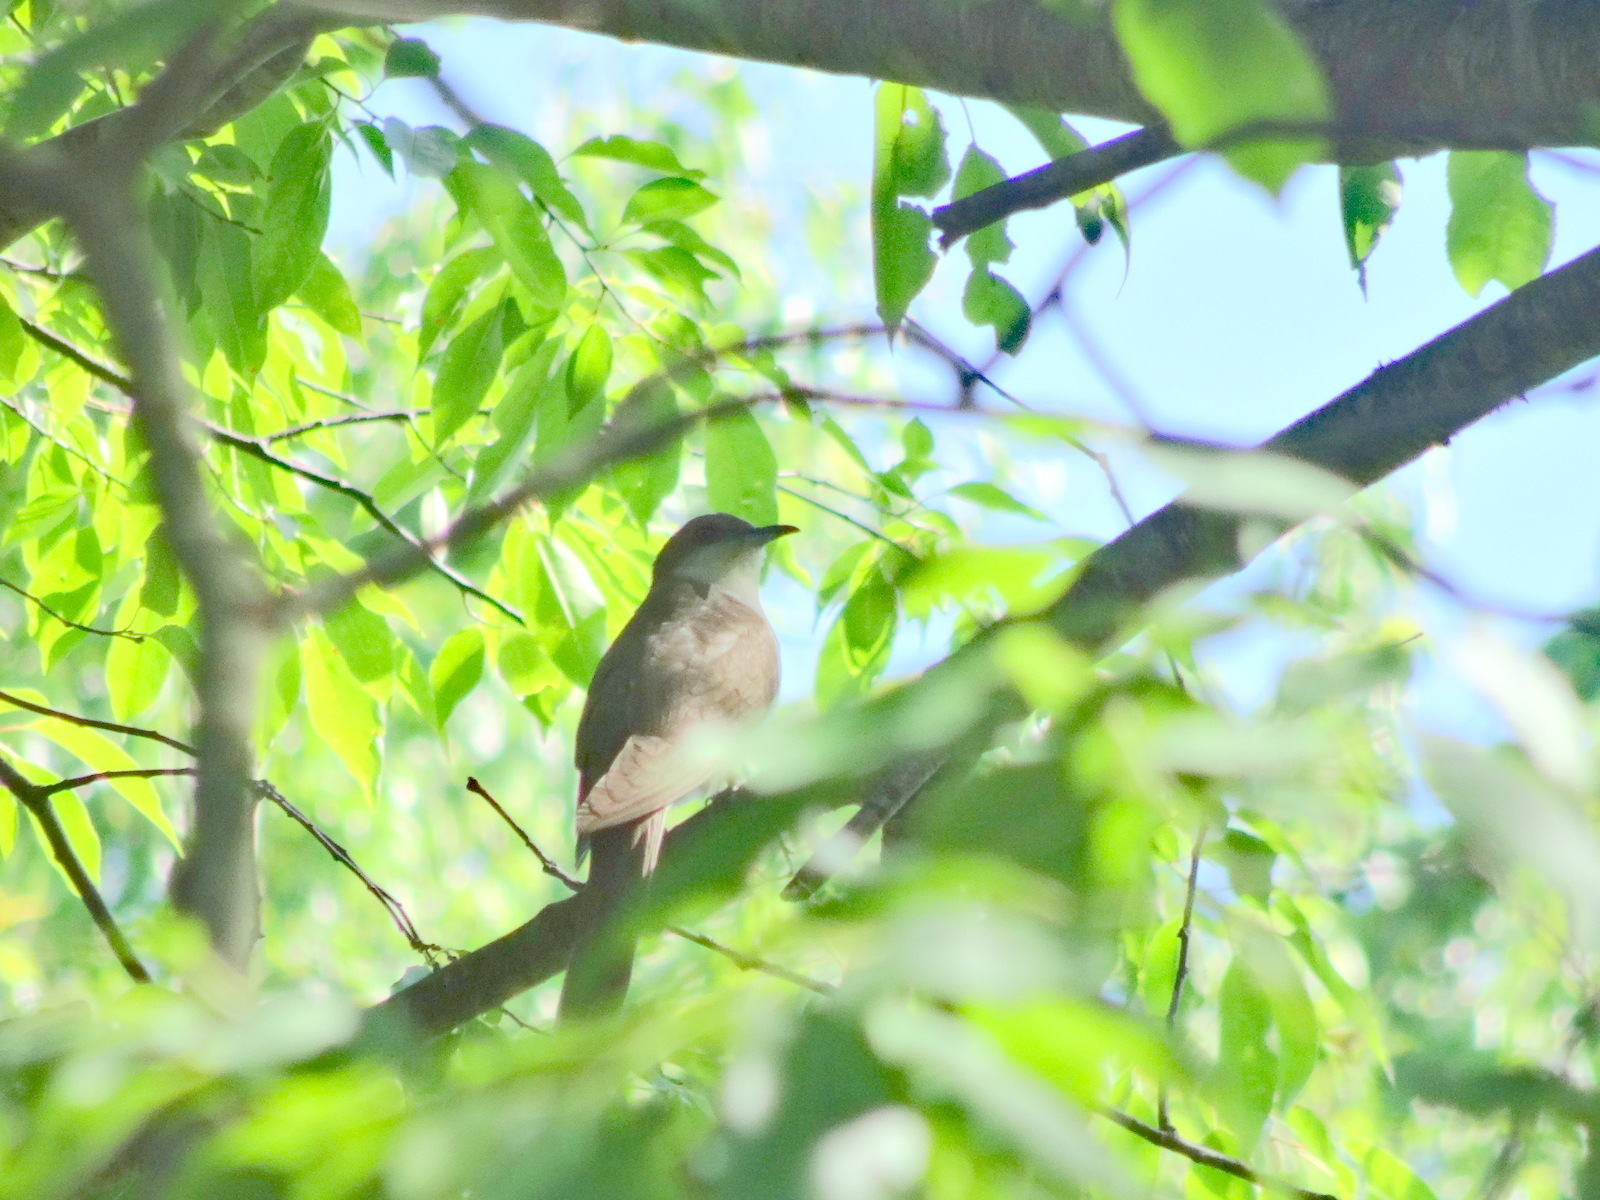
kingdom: Animalia
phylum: Chordata
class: Aves
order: Cuculiformes
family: Cuculidae
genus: Coccyzus
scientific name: Coccyzus erythropthalmus
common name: Black-billed cuckoo
